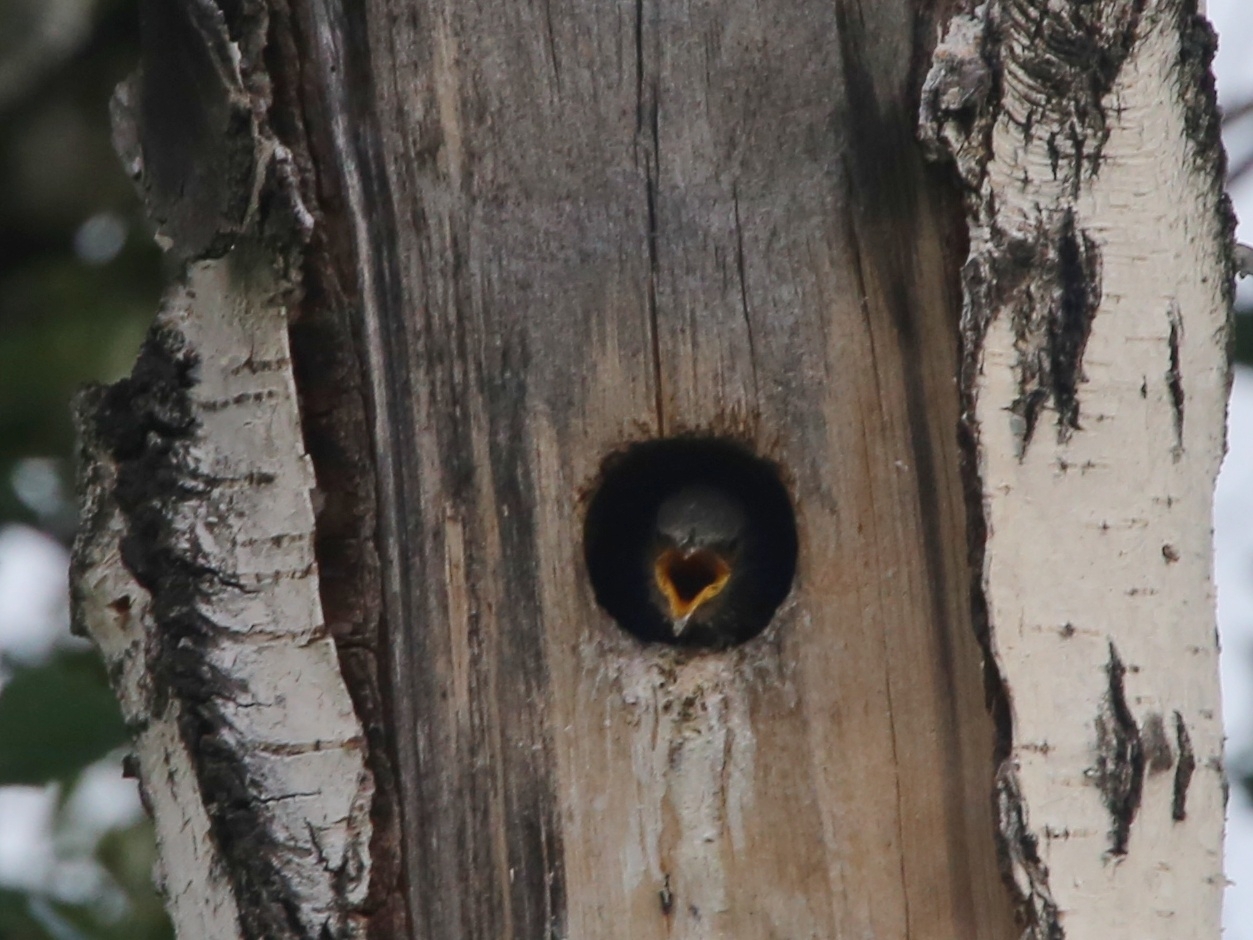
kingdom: Animalia
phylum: Chordata
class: Aves
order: Passeriformes
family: Sturnidae
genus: Sturnus
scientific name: Sturnus vulgaris
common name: Common starling
